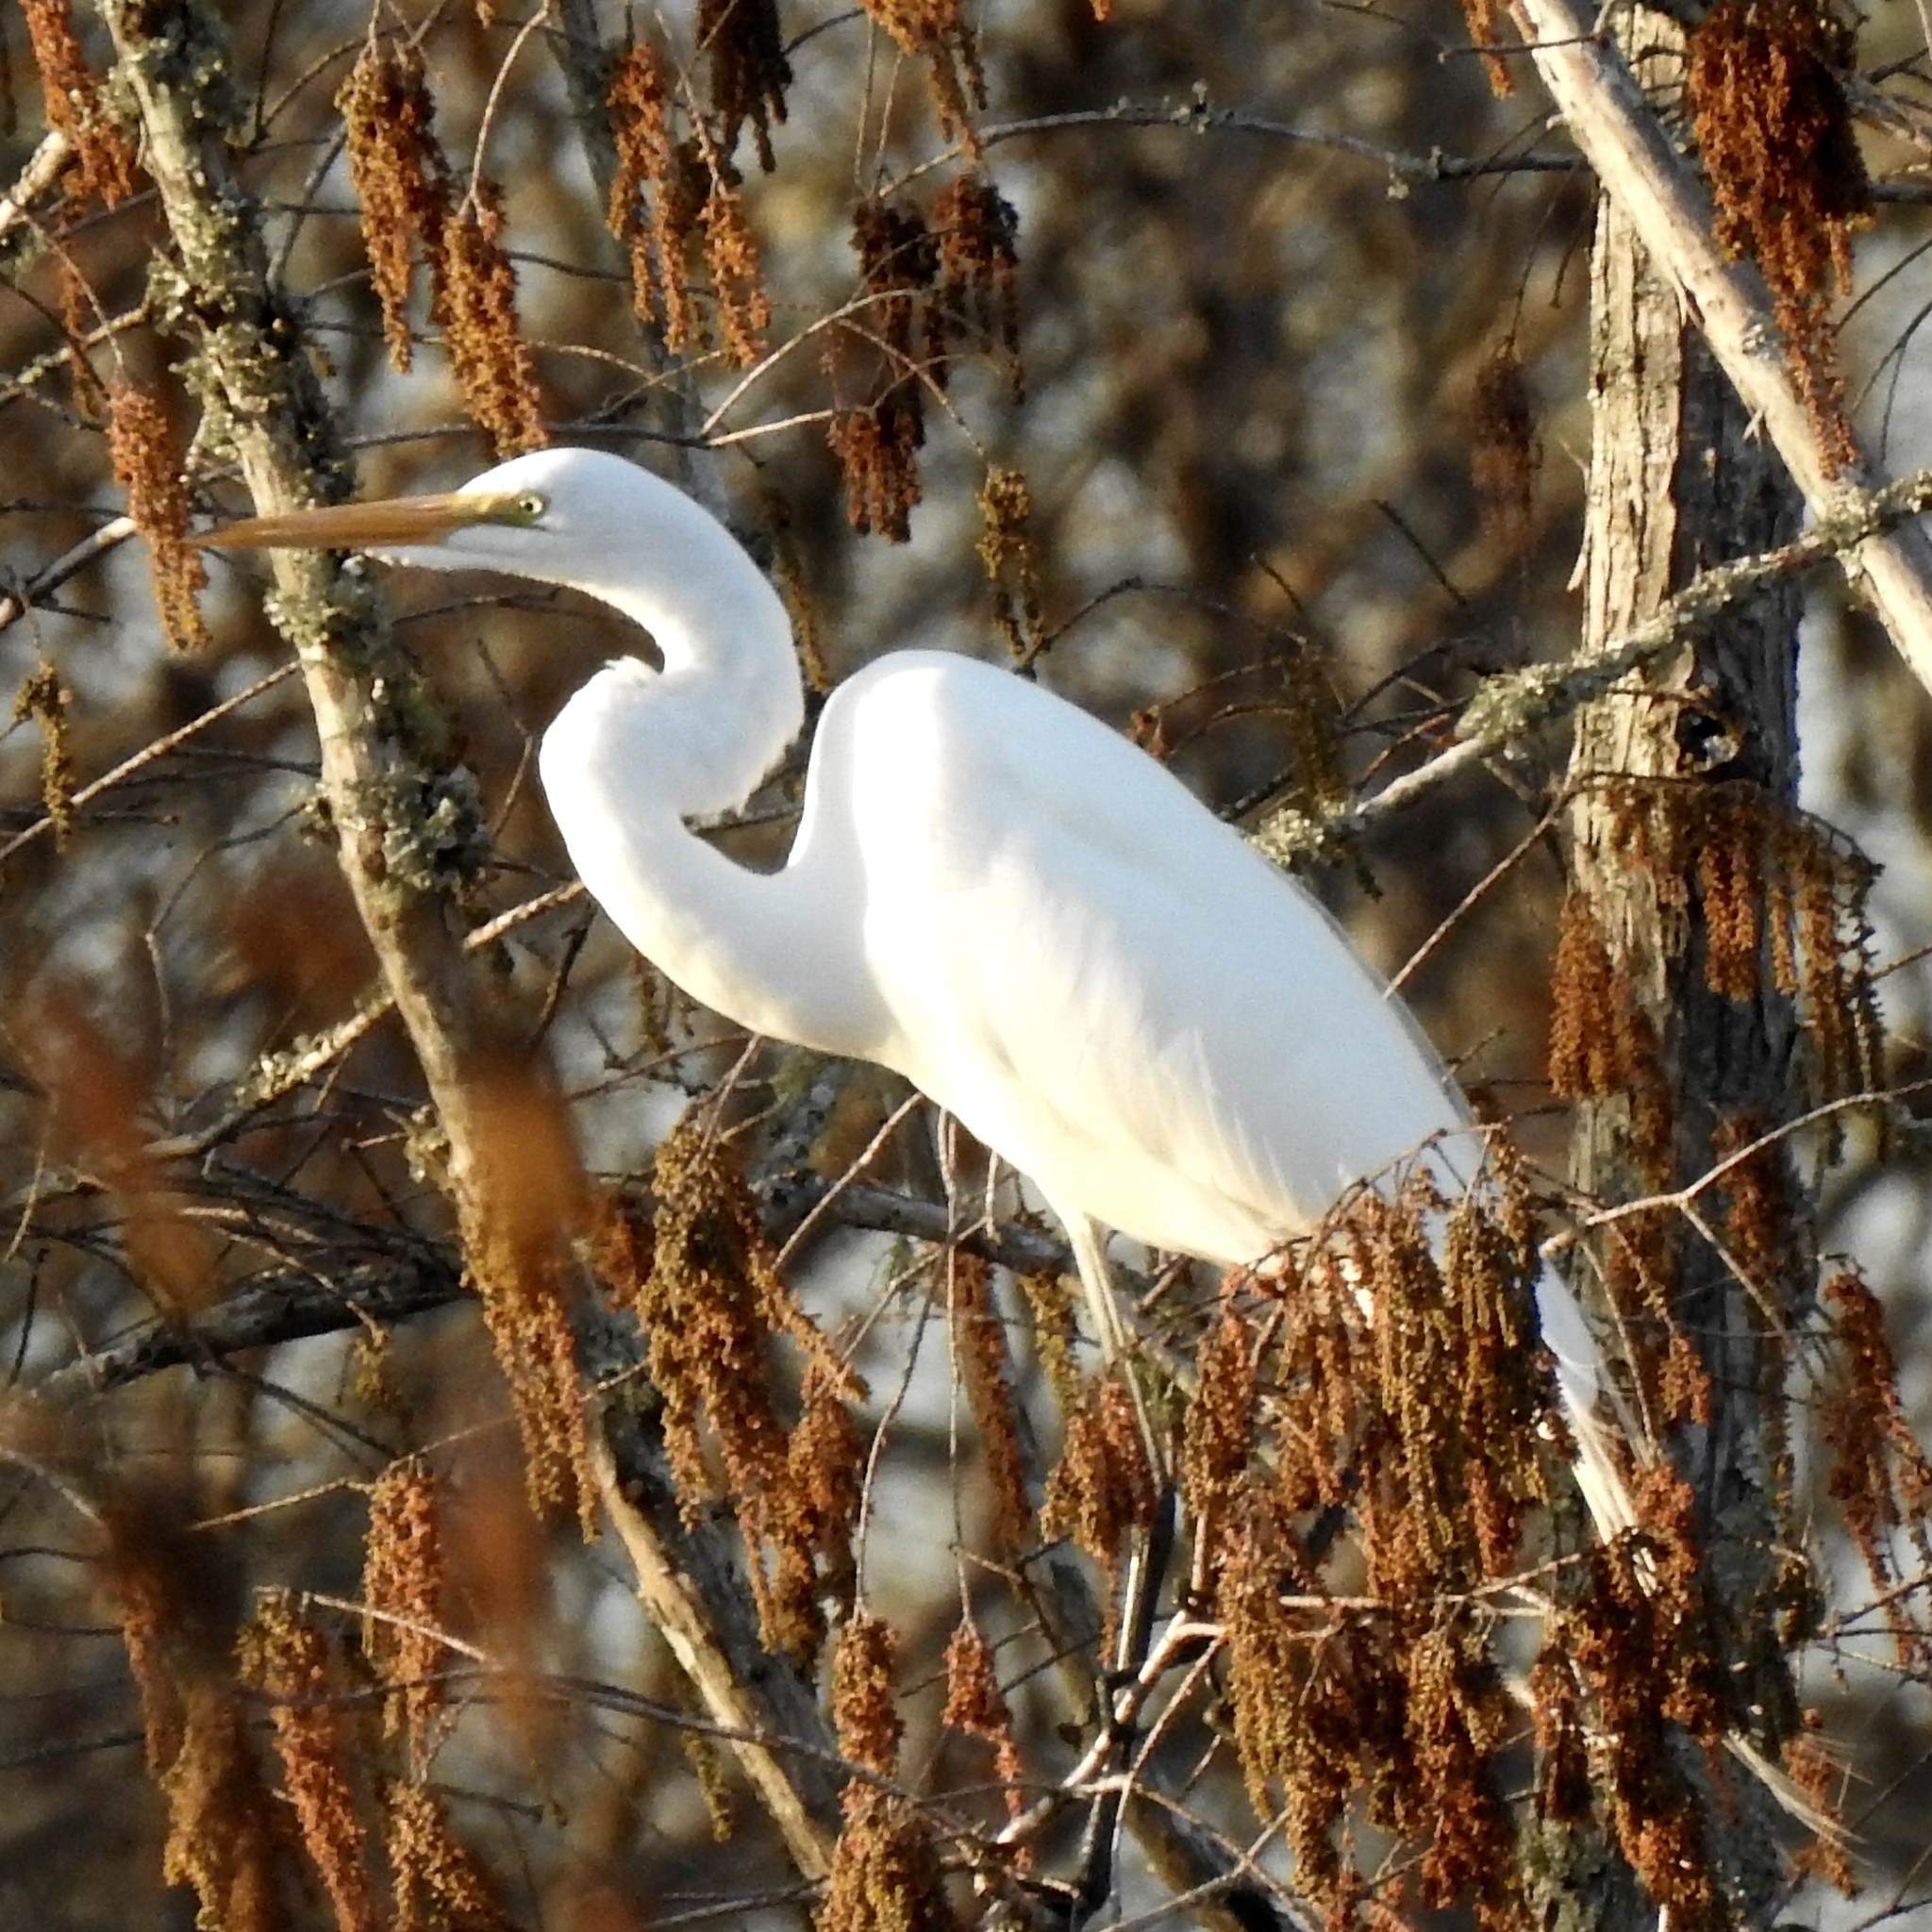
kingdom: Animalia
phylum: Chordata
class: Aves
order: Pelecaniformes
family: Ardeidae
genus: Ardea
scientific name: Ardea alba
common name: Great egret
